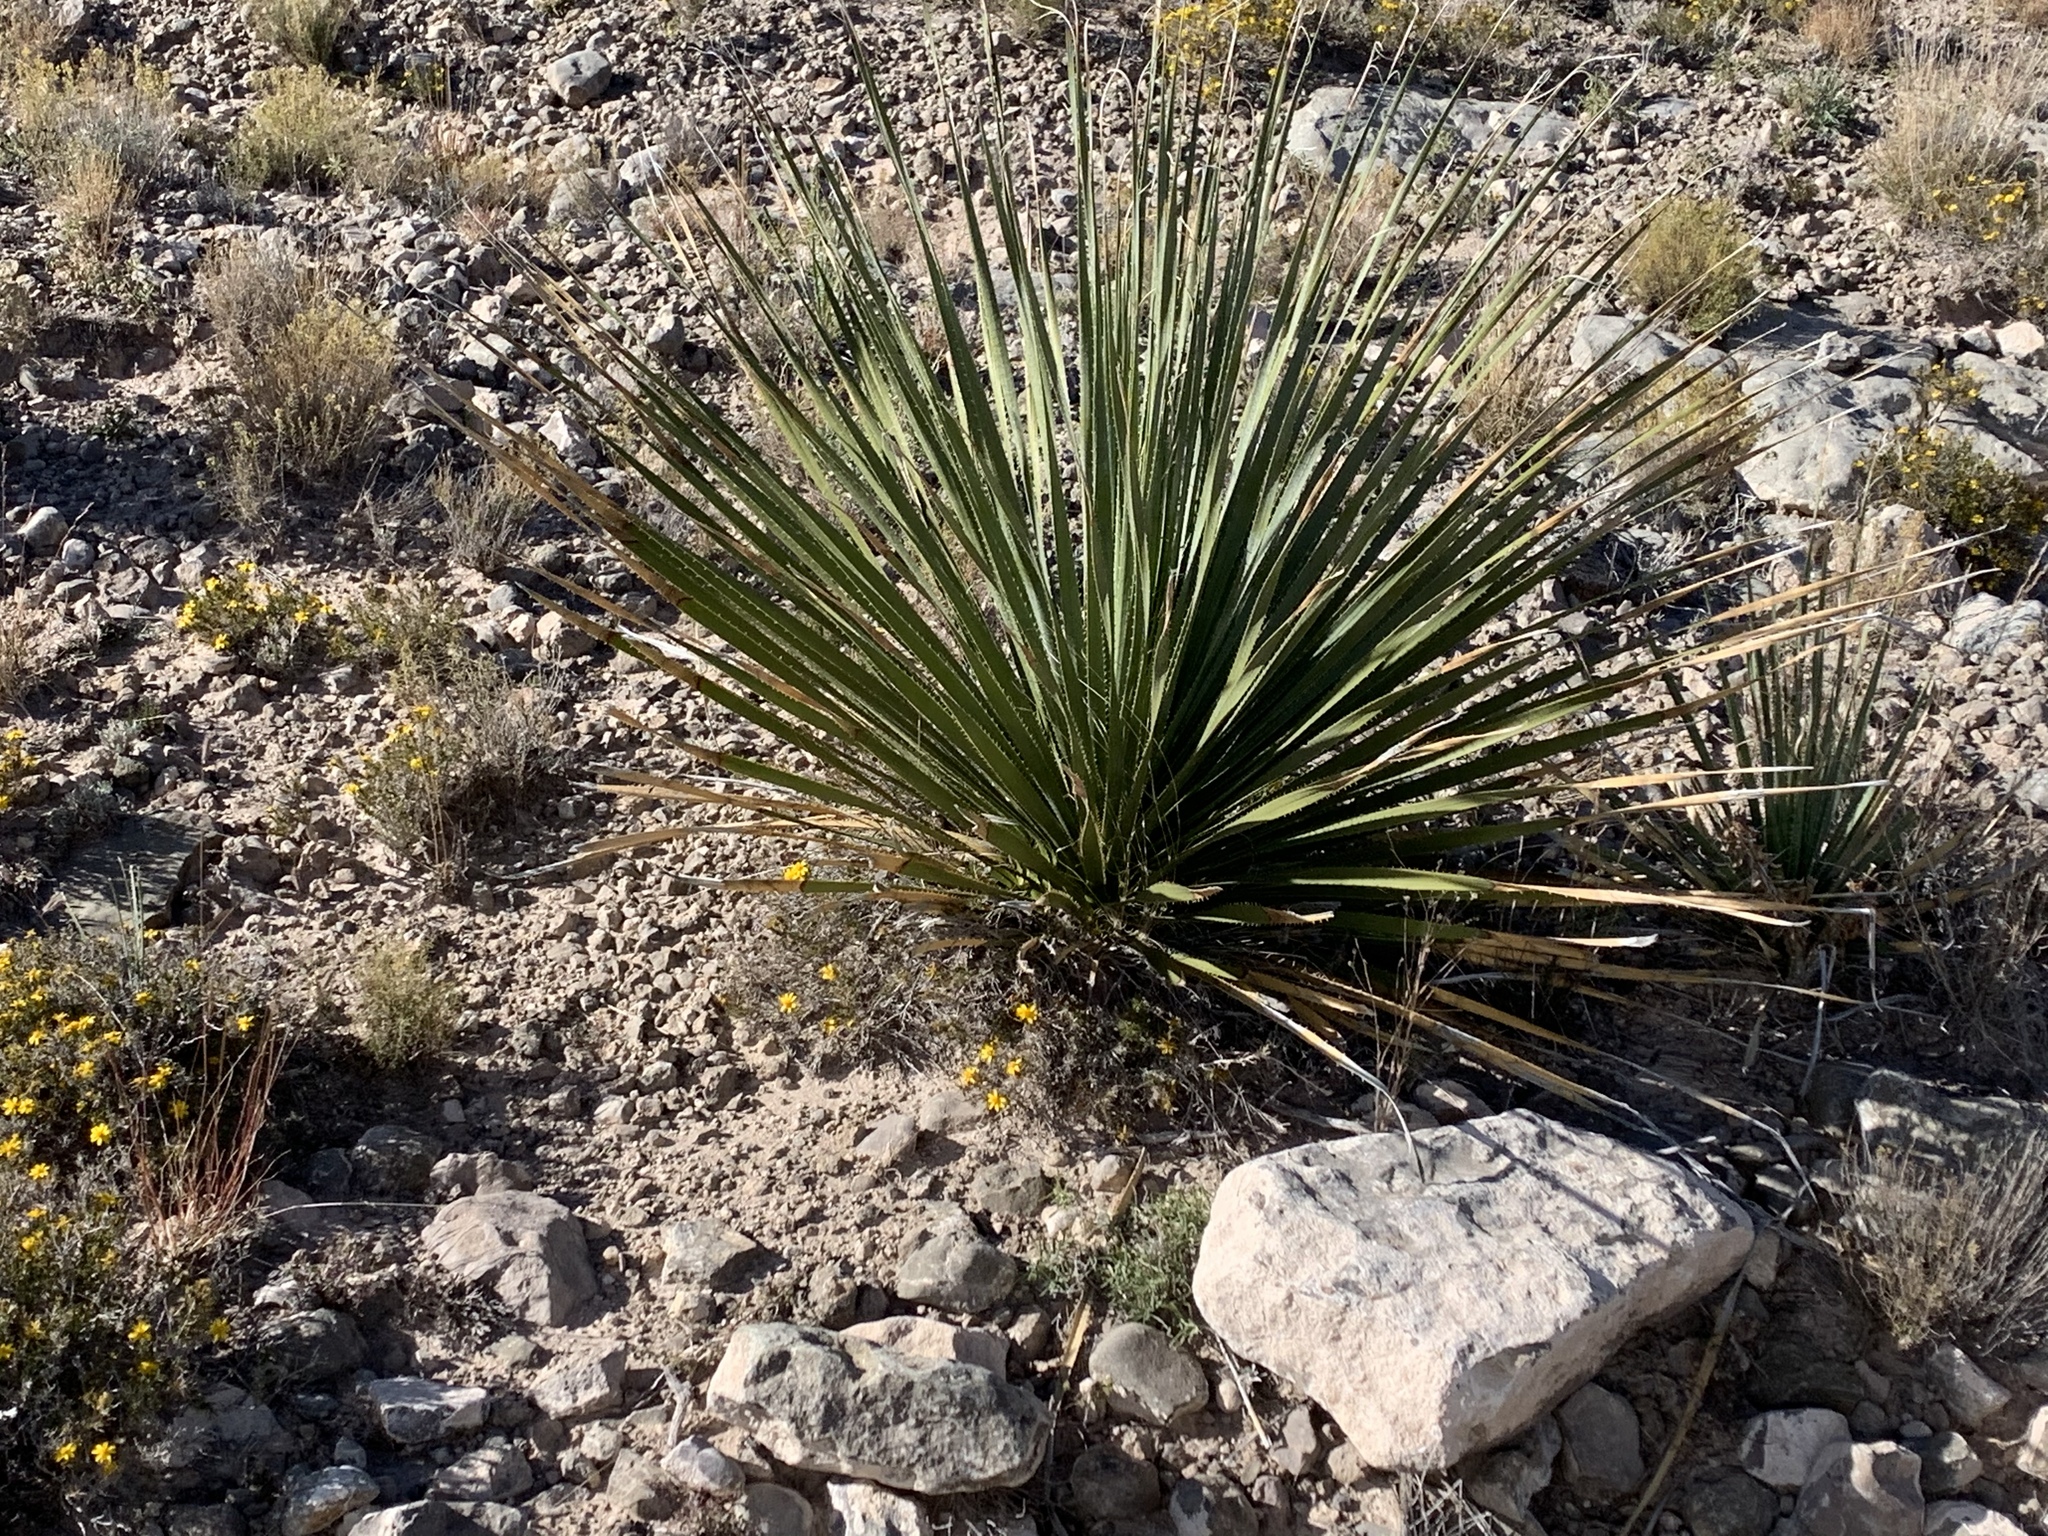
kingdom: Plantae
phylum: Tracheophyta
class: Liliopsida
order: Asparagales
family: Asparagaceae
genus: Dasylirion
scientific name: Dasylirion wheeleri
